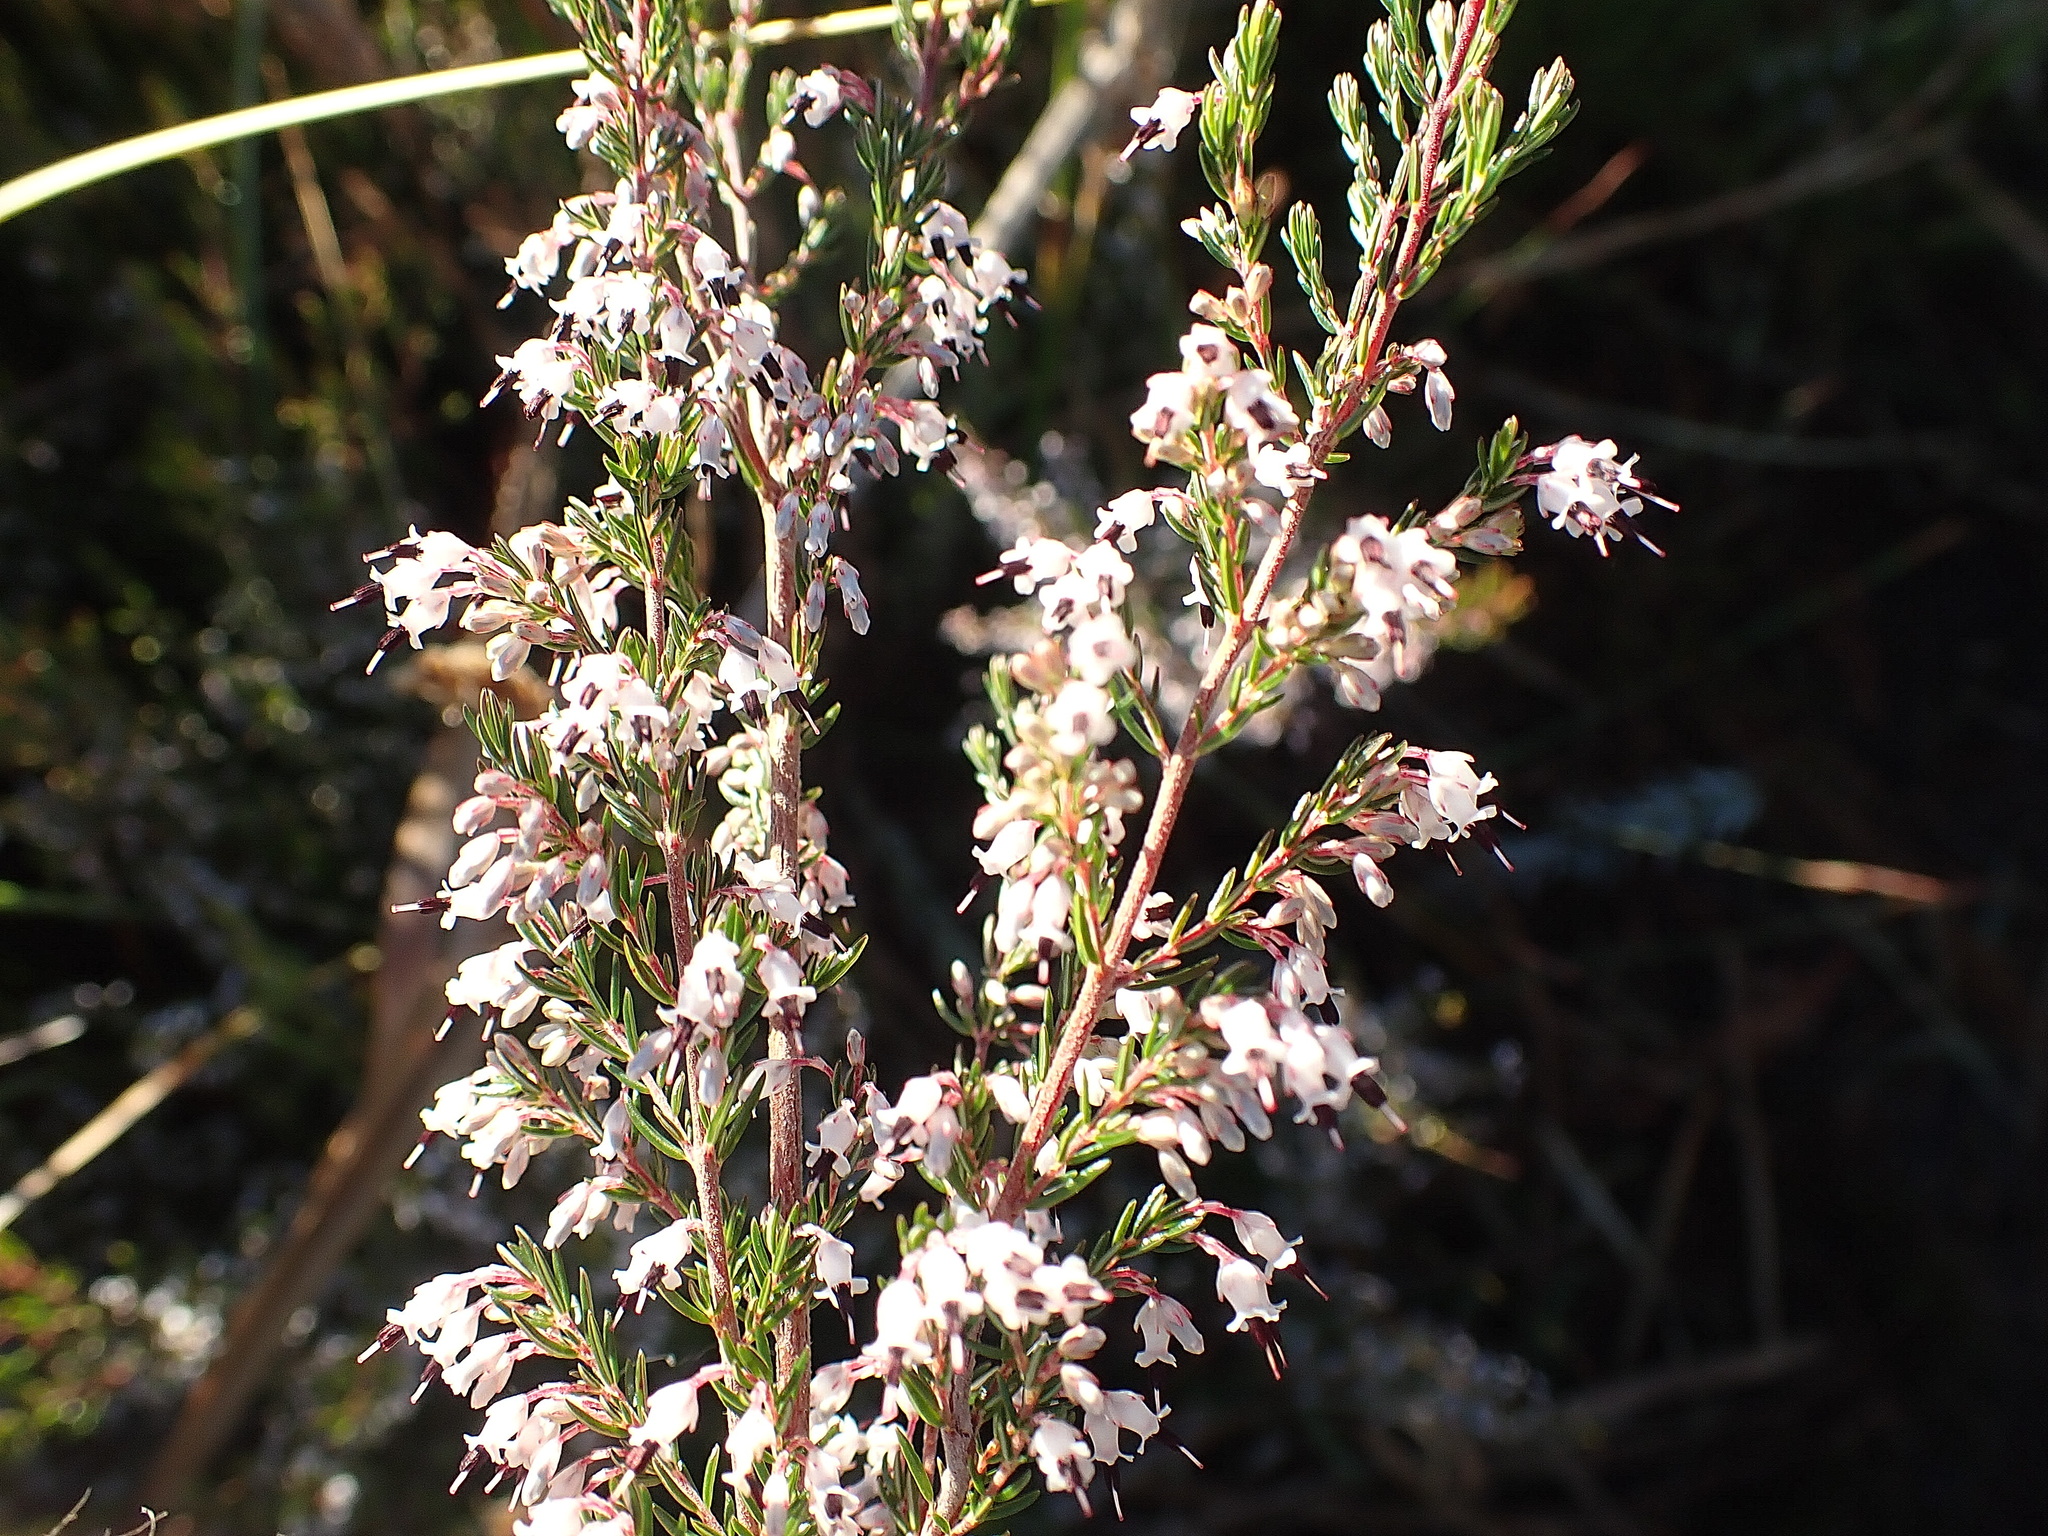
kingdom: Plantae
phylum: Tracheophyta
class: Magnoliopsida
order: Ericales
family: Ericaceae
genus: Erica
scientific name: Erica fuscescens
